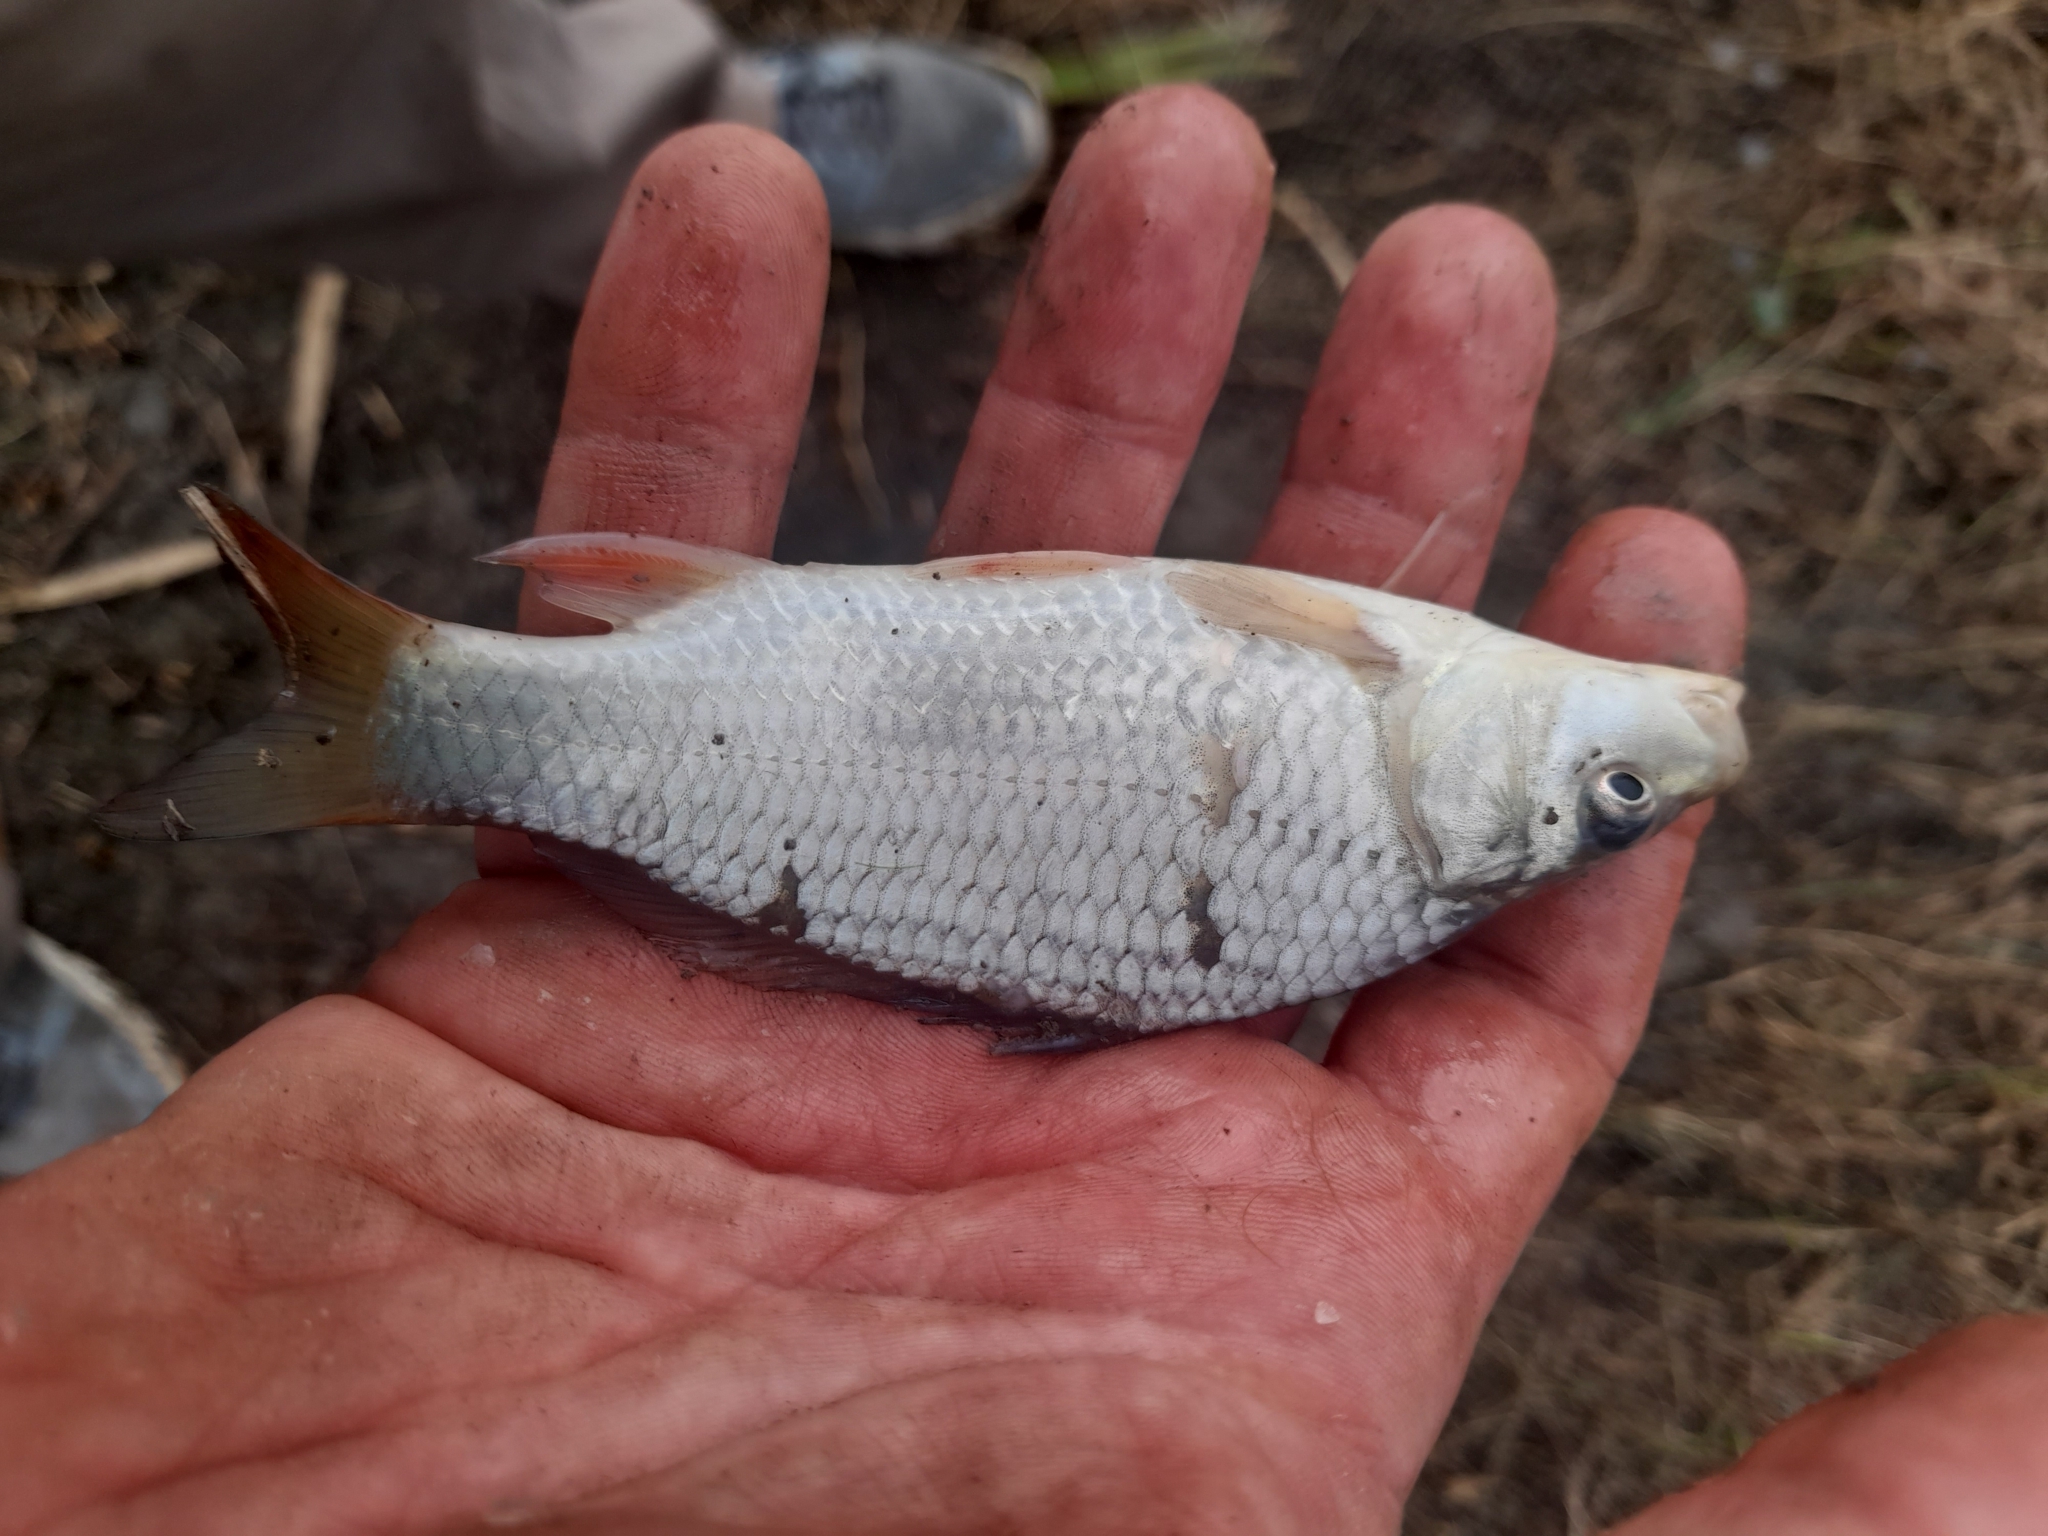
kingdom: Animalia
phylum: Chordata
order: Cypriniformes
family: Cyprinidae
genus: Cyprinus
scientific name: Cyprinus carpio
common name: Common carp
